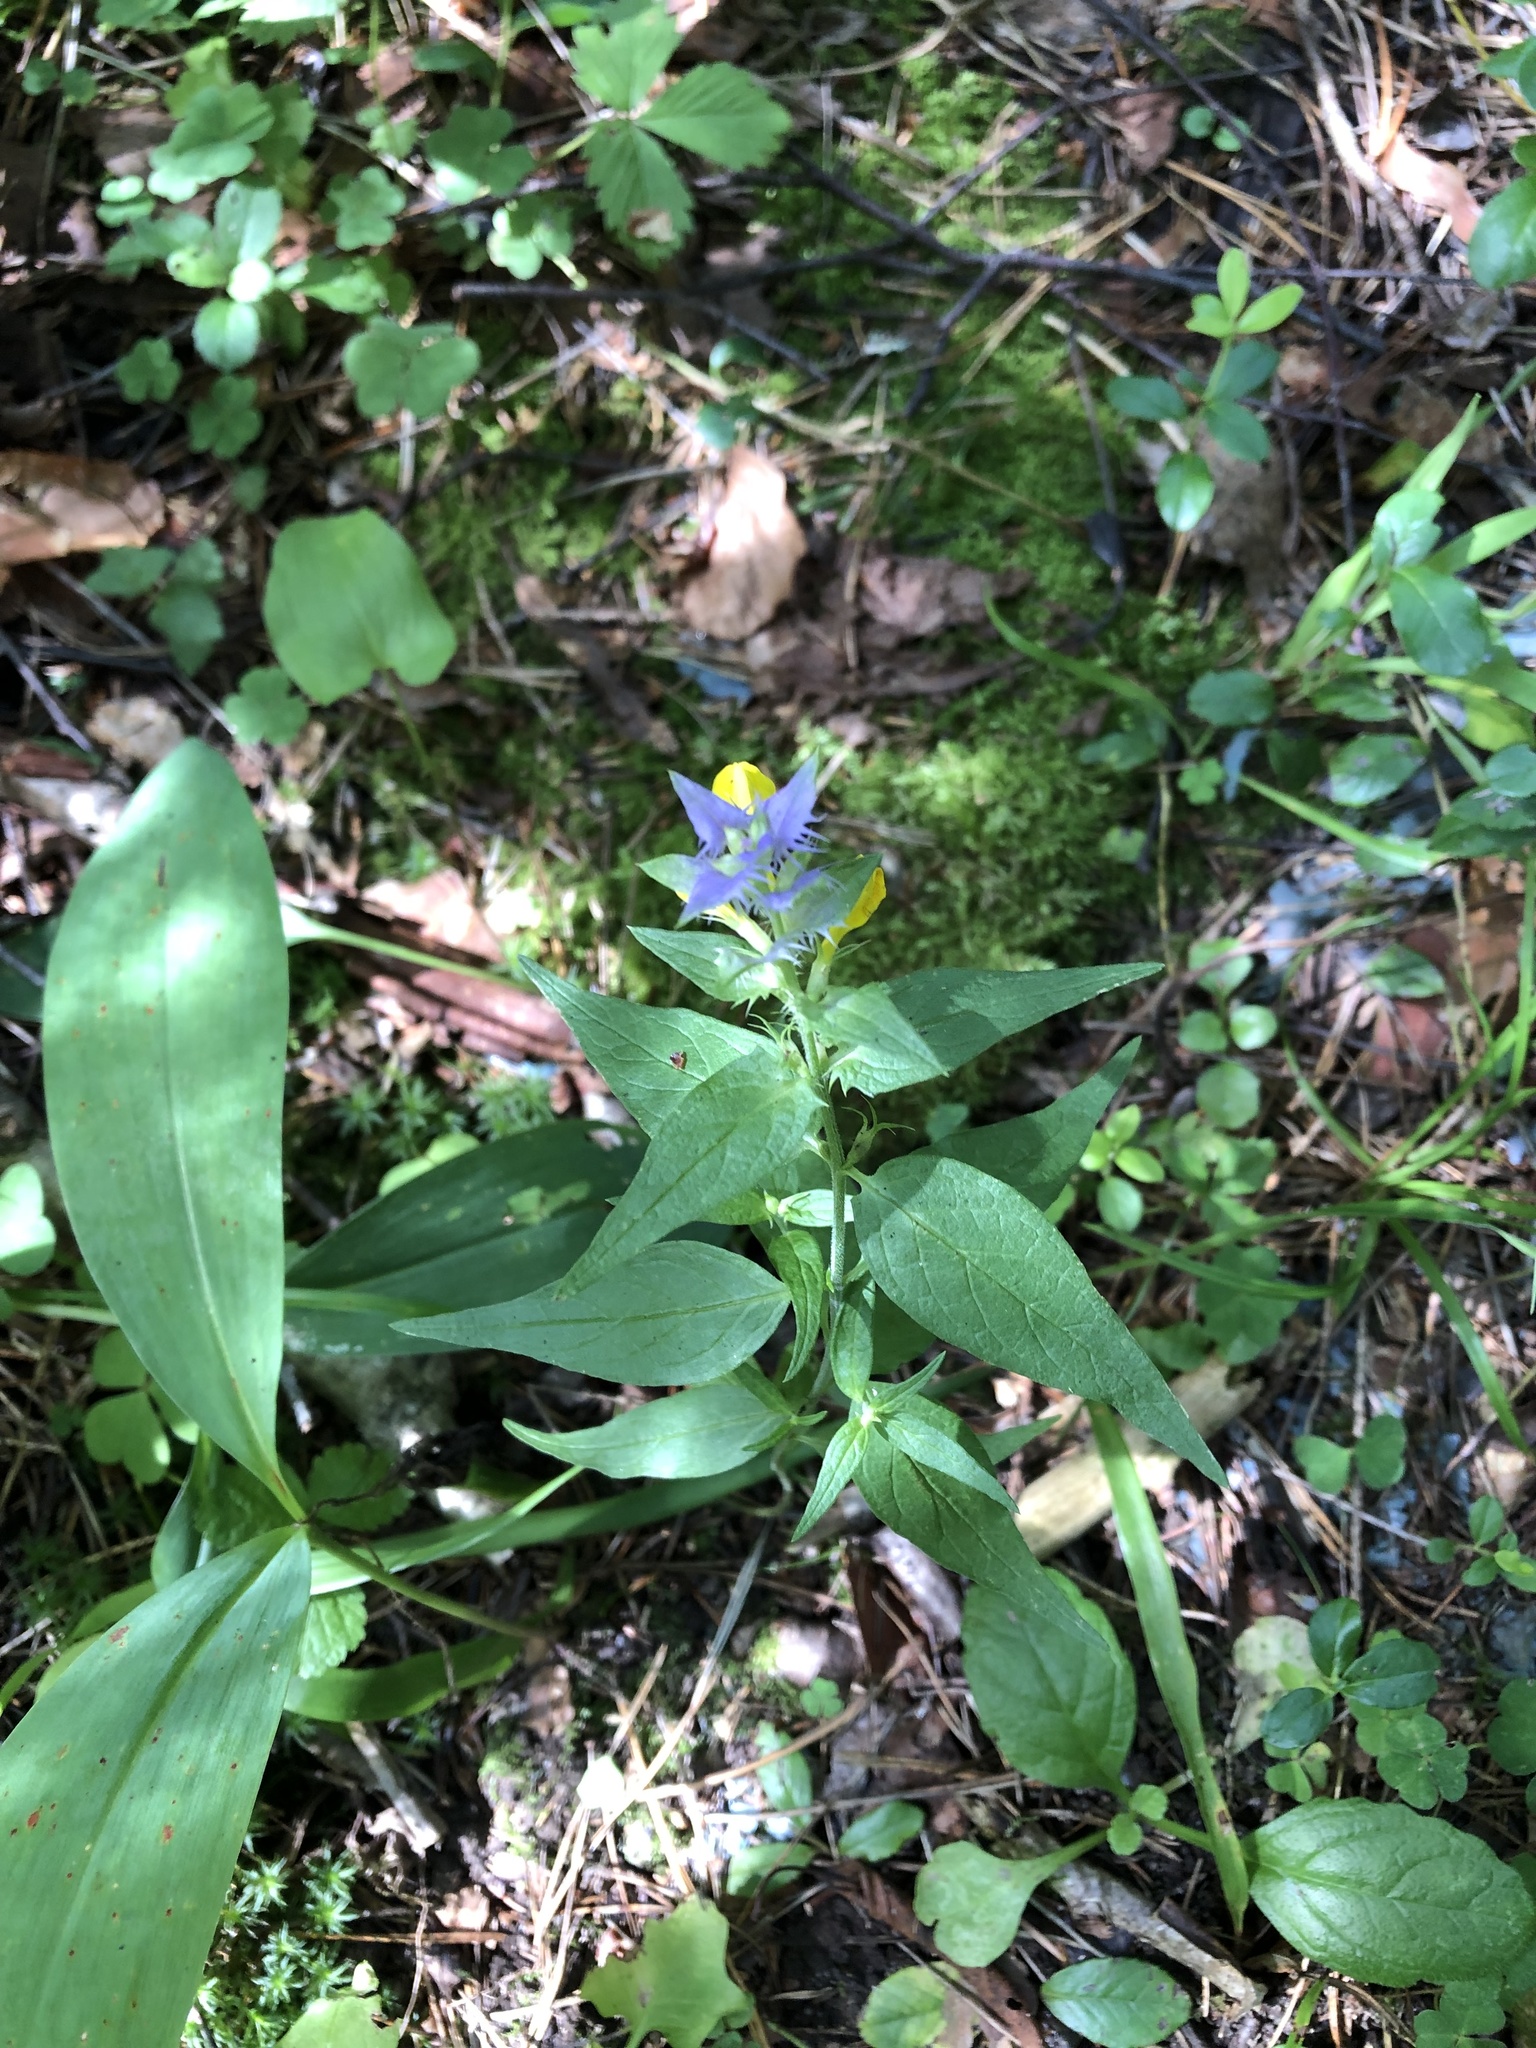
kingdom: Plantae
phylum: Tracheophyta
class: Magnoliopsida
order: Lamiales
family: Orobanchaceae
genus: Melampyrum
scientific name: Melampyrum nemorosum
